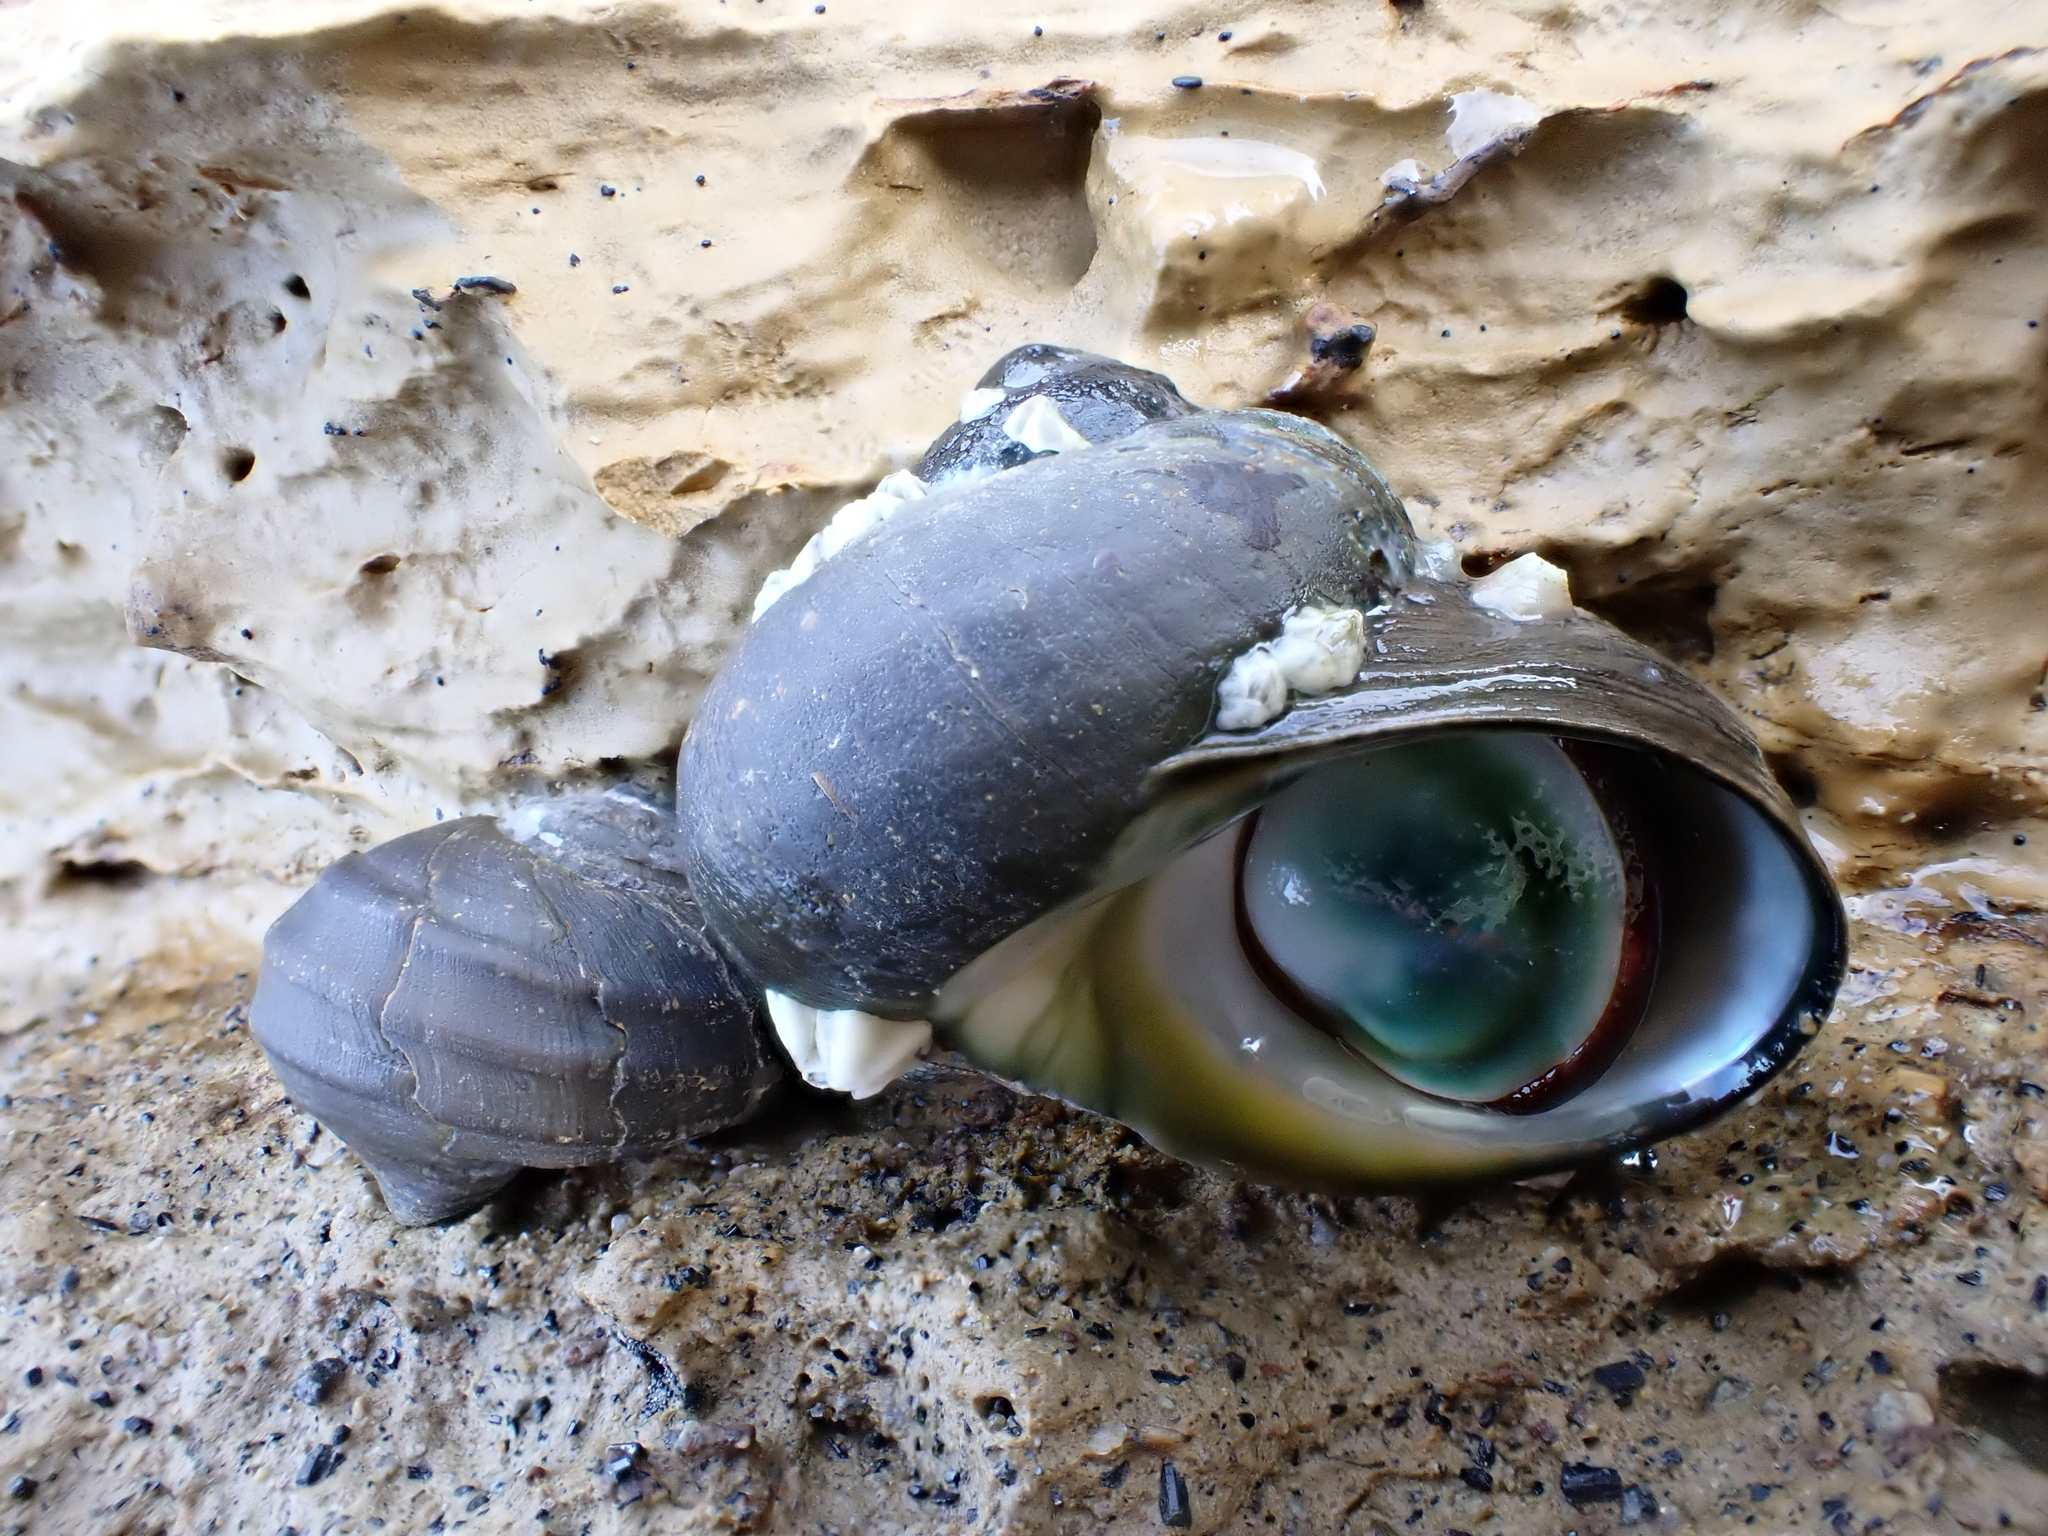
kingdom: Animalia
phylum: Mollusca
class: Gastropoda
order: Trochida
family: Turbinidae
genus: Lunella
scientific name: Lunella smaragda
